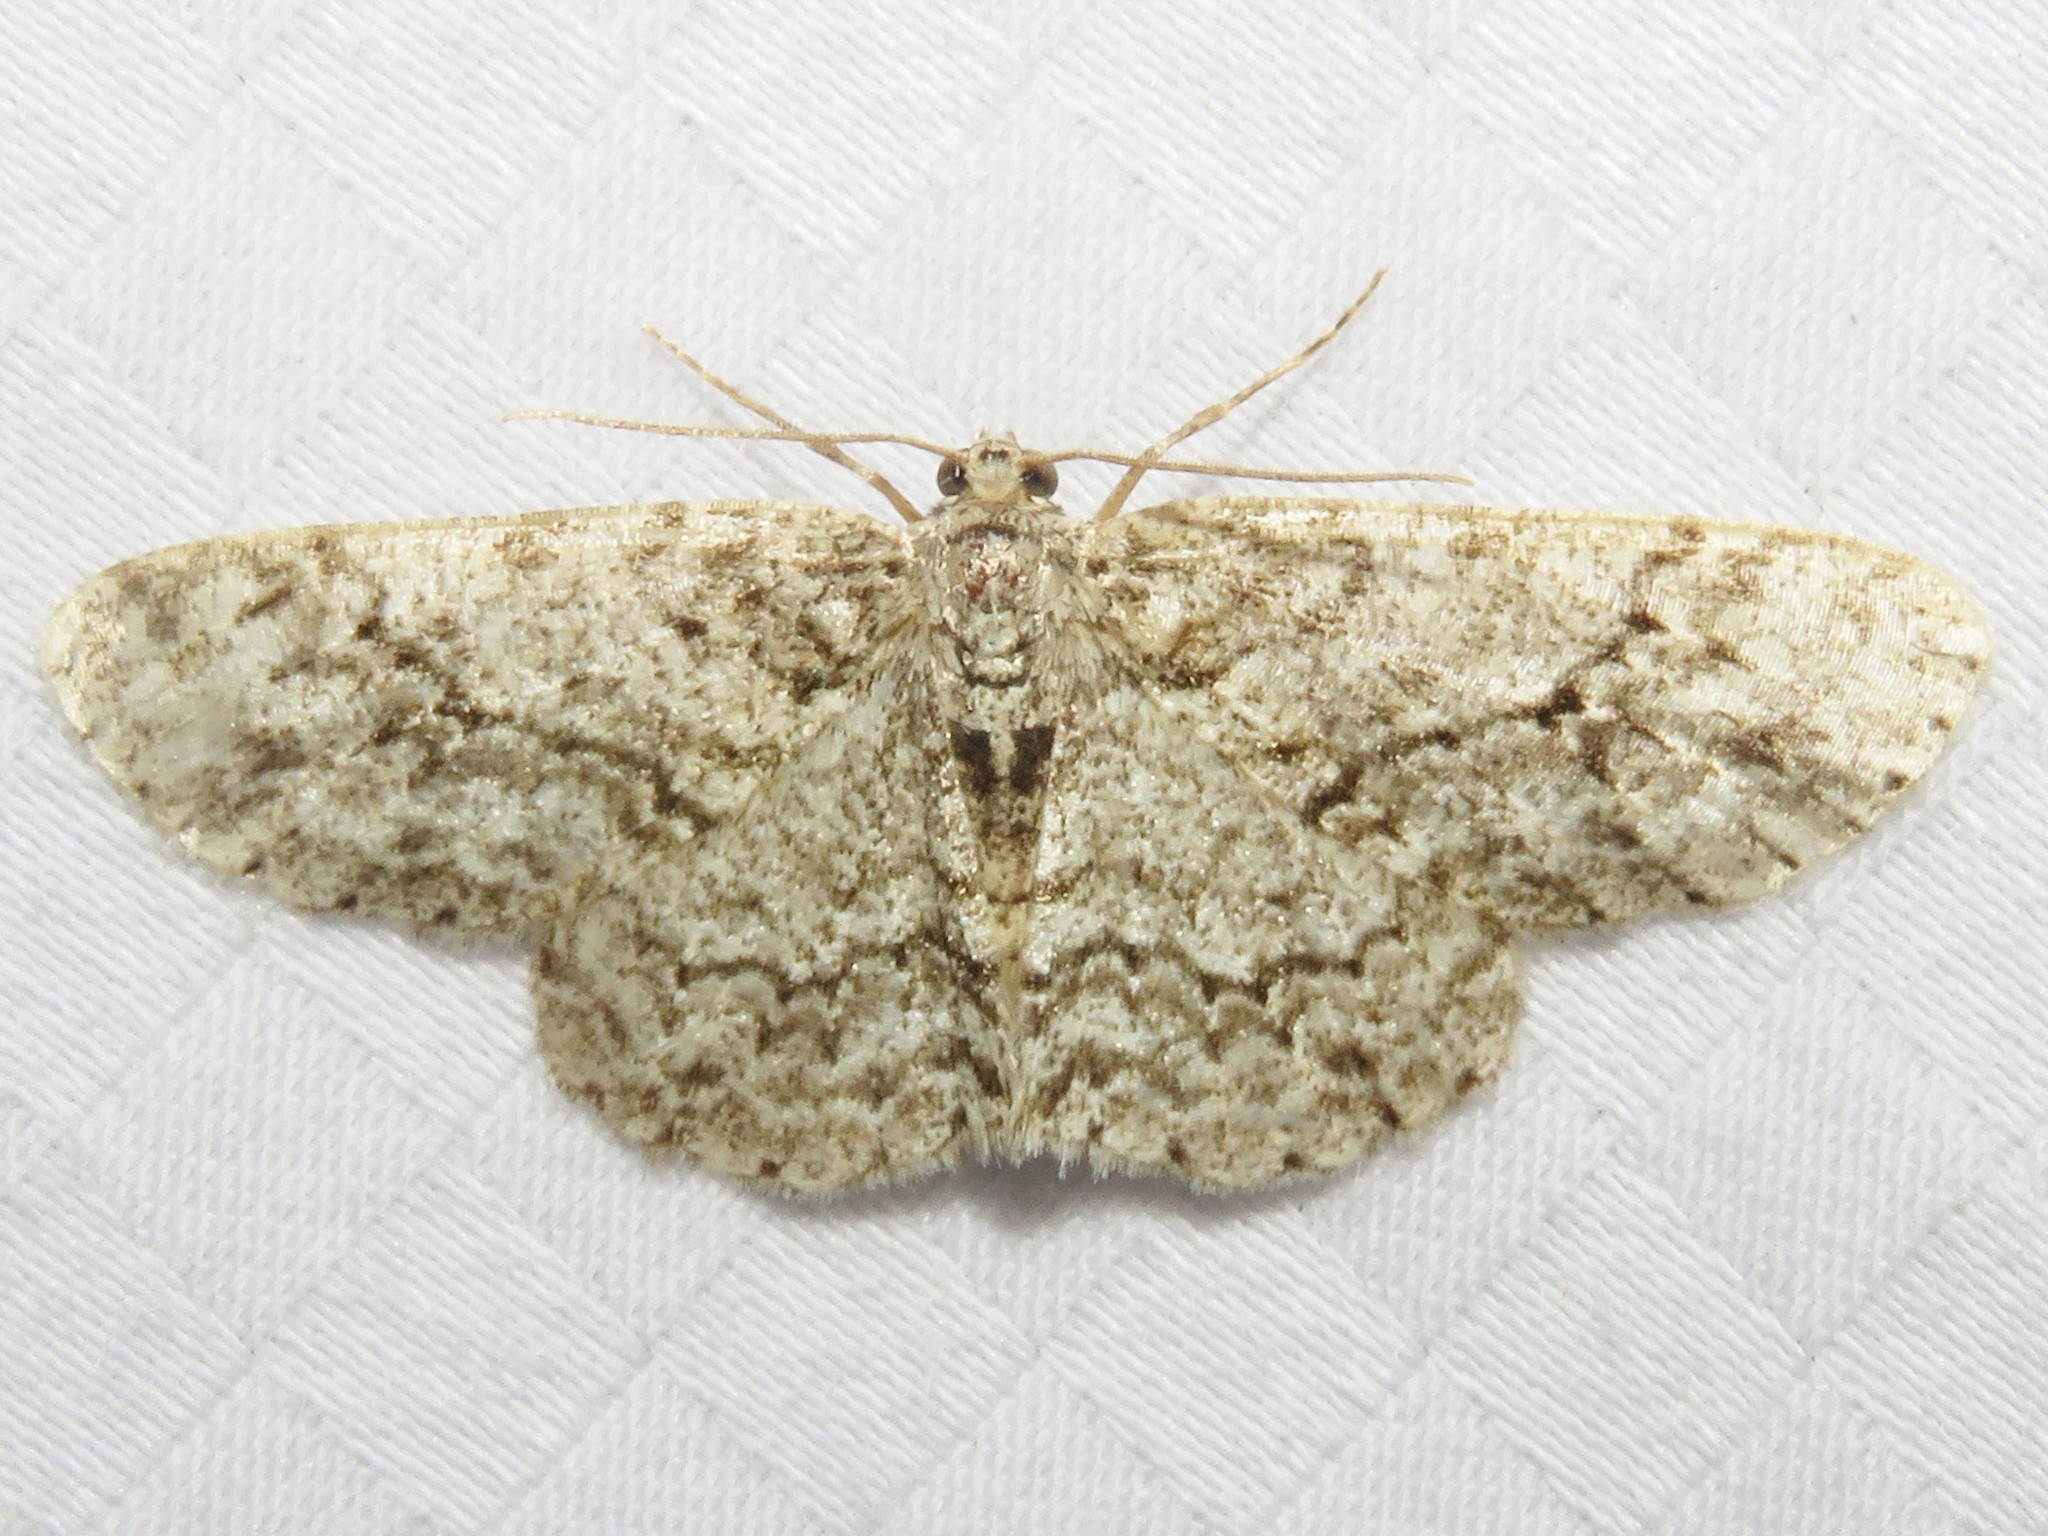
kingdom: Animalia
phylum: Arthropoda
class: Insecta
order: Lepidoptera
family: Geometridae
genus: Ectropis
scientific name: Ectropis crepuscularia
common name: Engrailed
